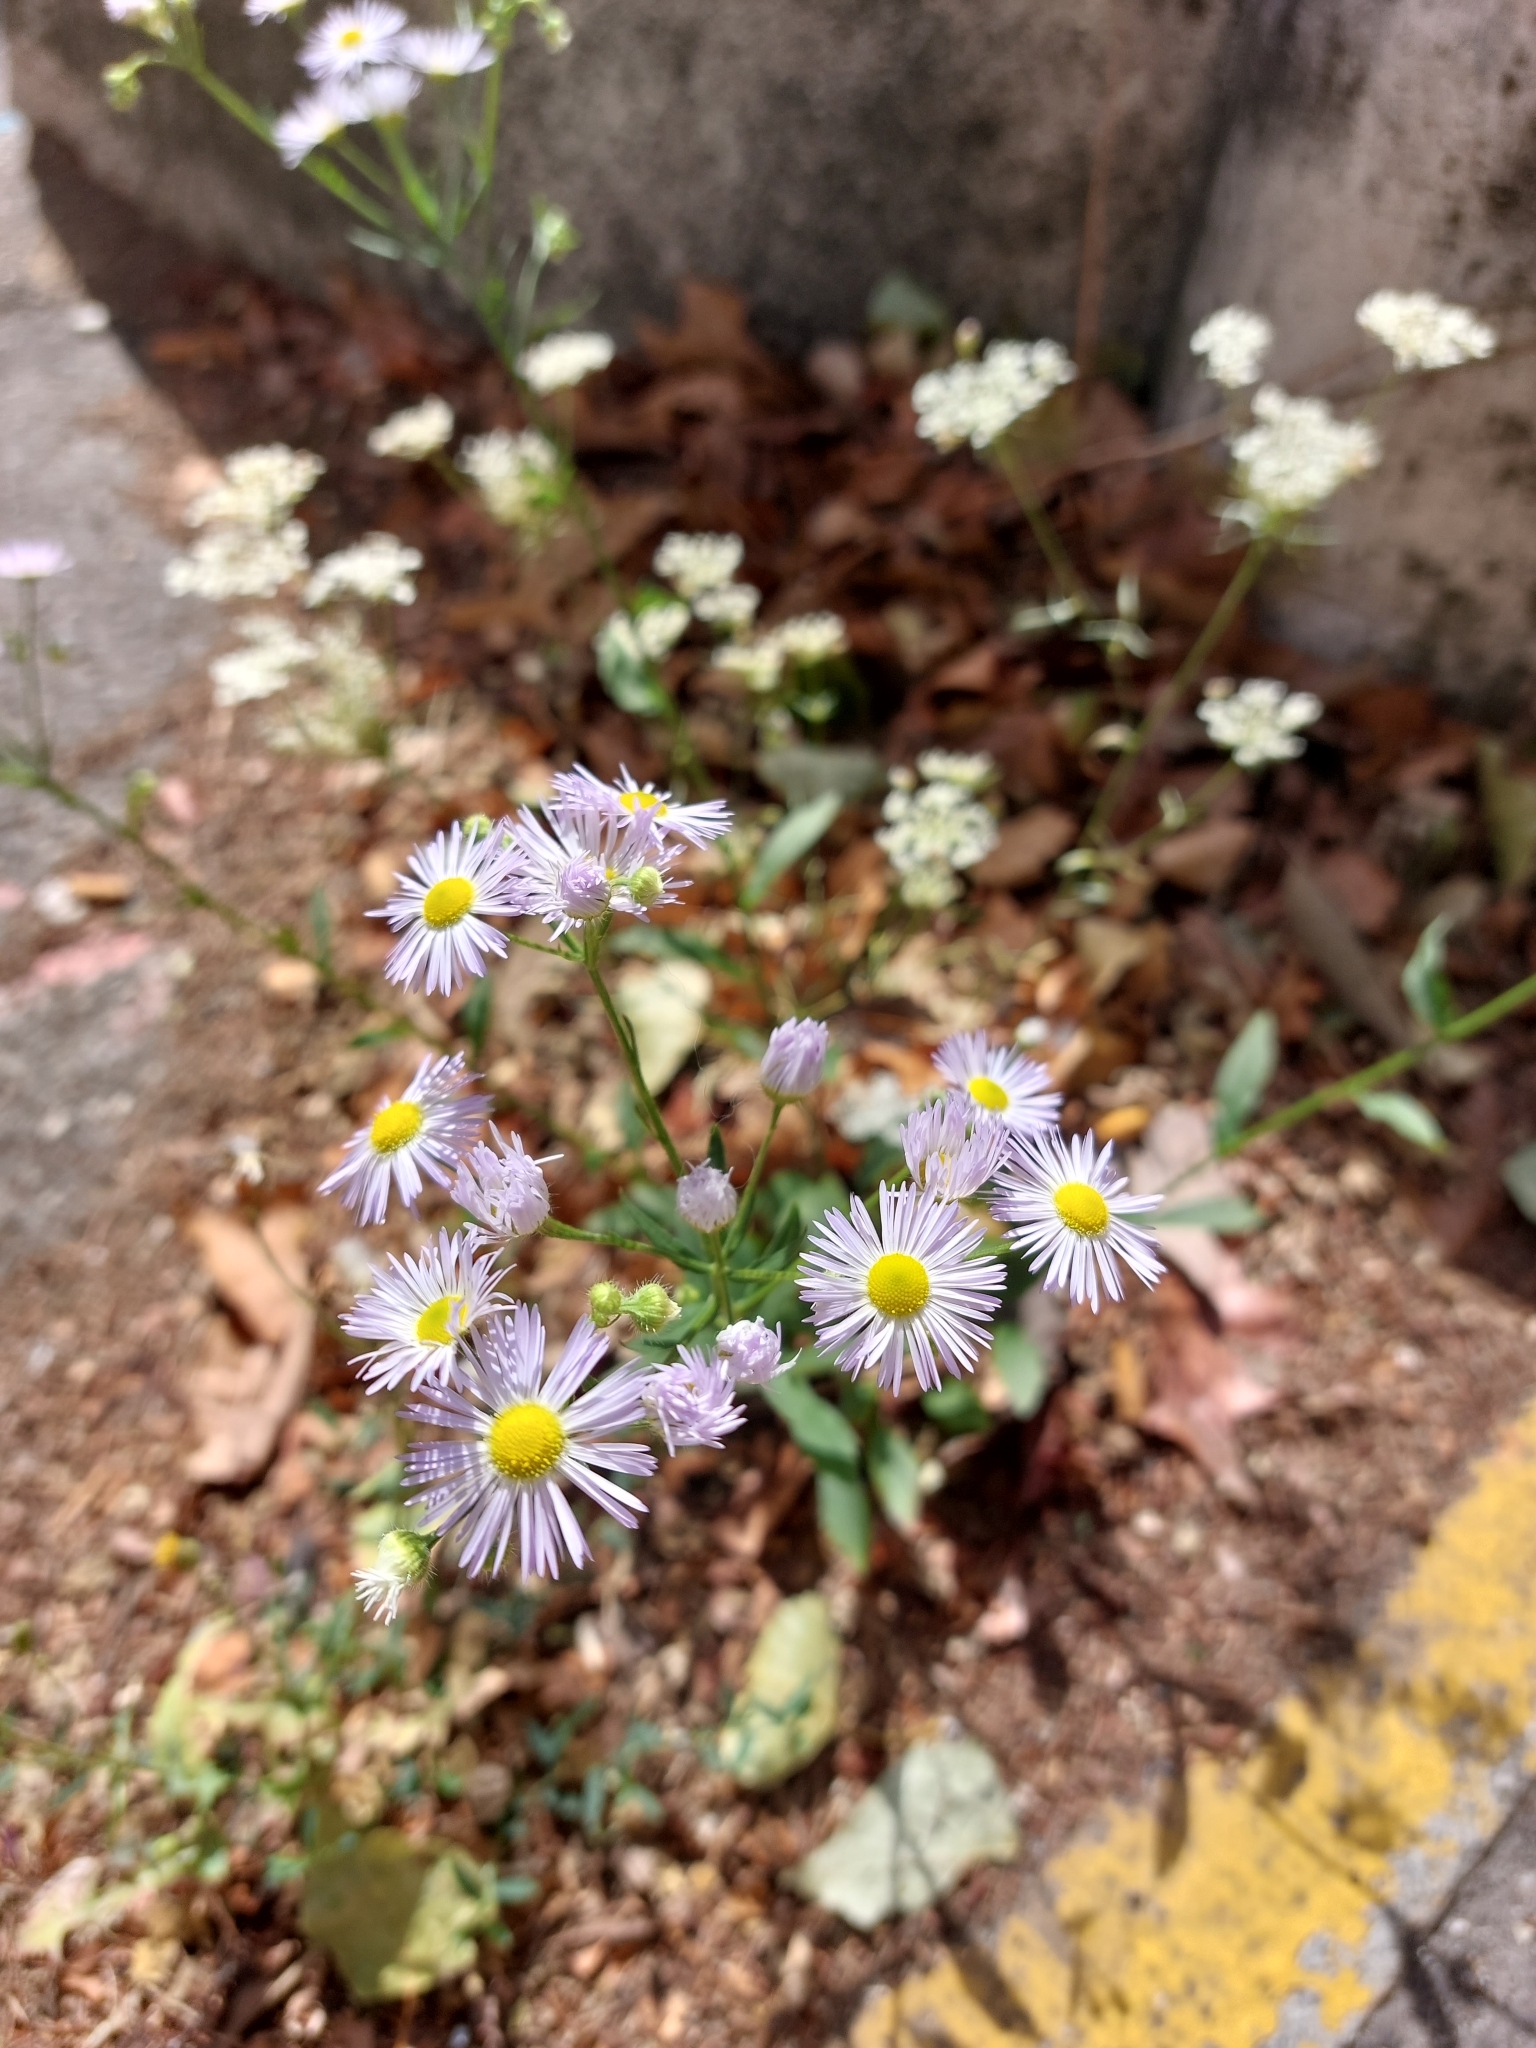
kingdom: Plantae
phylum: Tracheophyta
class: Magnoliopsida
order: Asterales
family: Asteraceae
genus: Erigeron
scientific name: Erigeron annuus
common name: Tall fleabane
